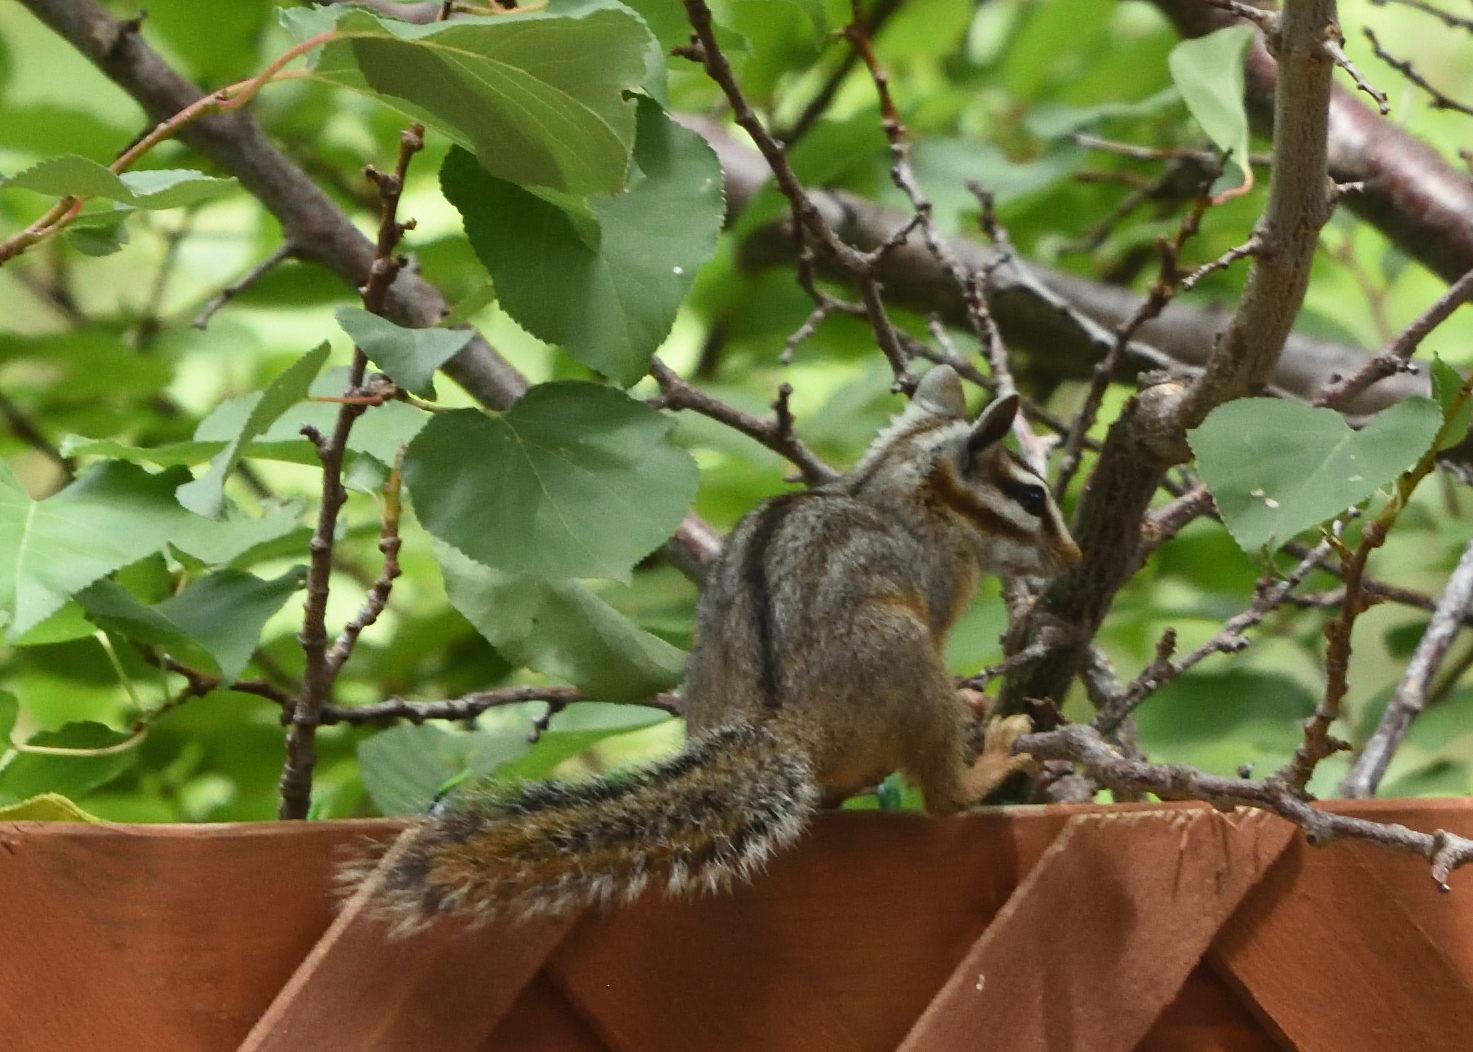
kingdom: Animalia
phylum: Chordata
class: Mammalia
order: Rodentia
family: Sciuridae
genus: Tamias
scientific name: Tamias dorsalis
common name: Cliff chipmunk
